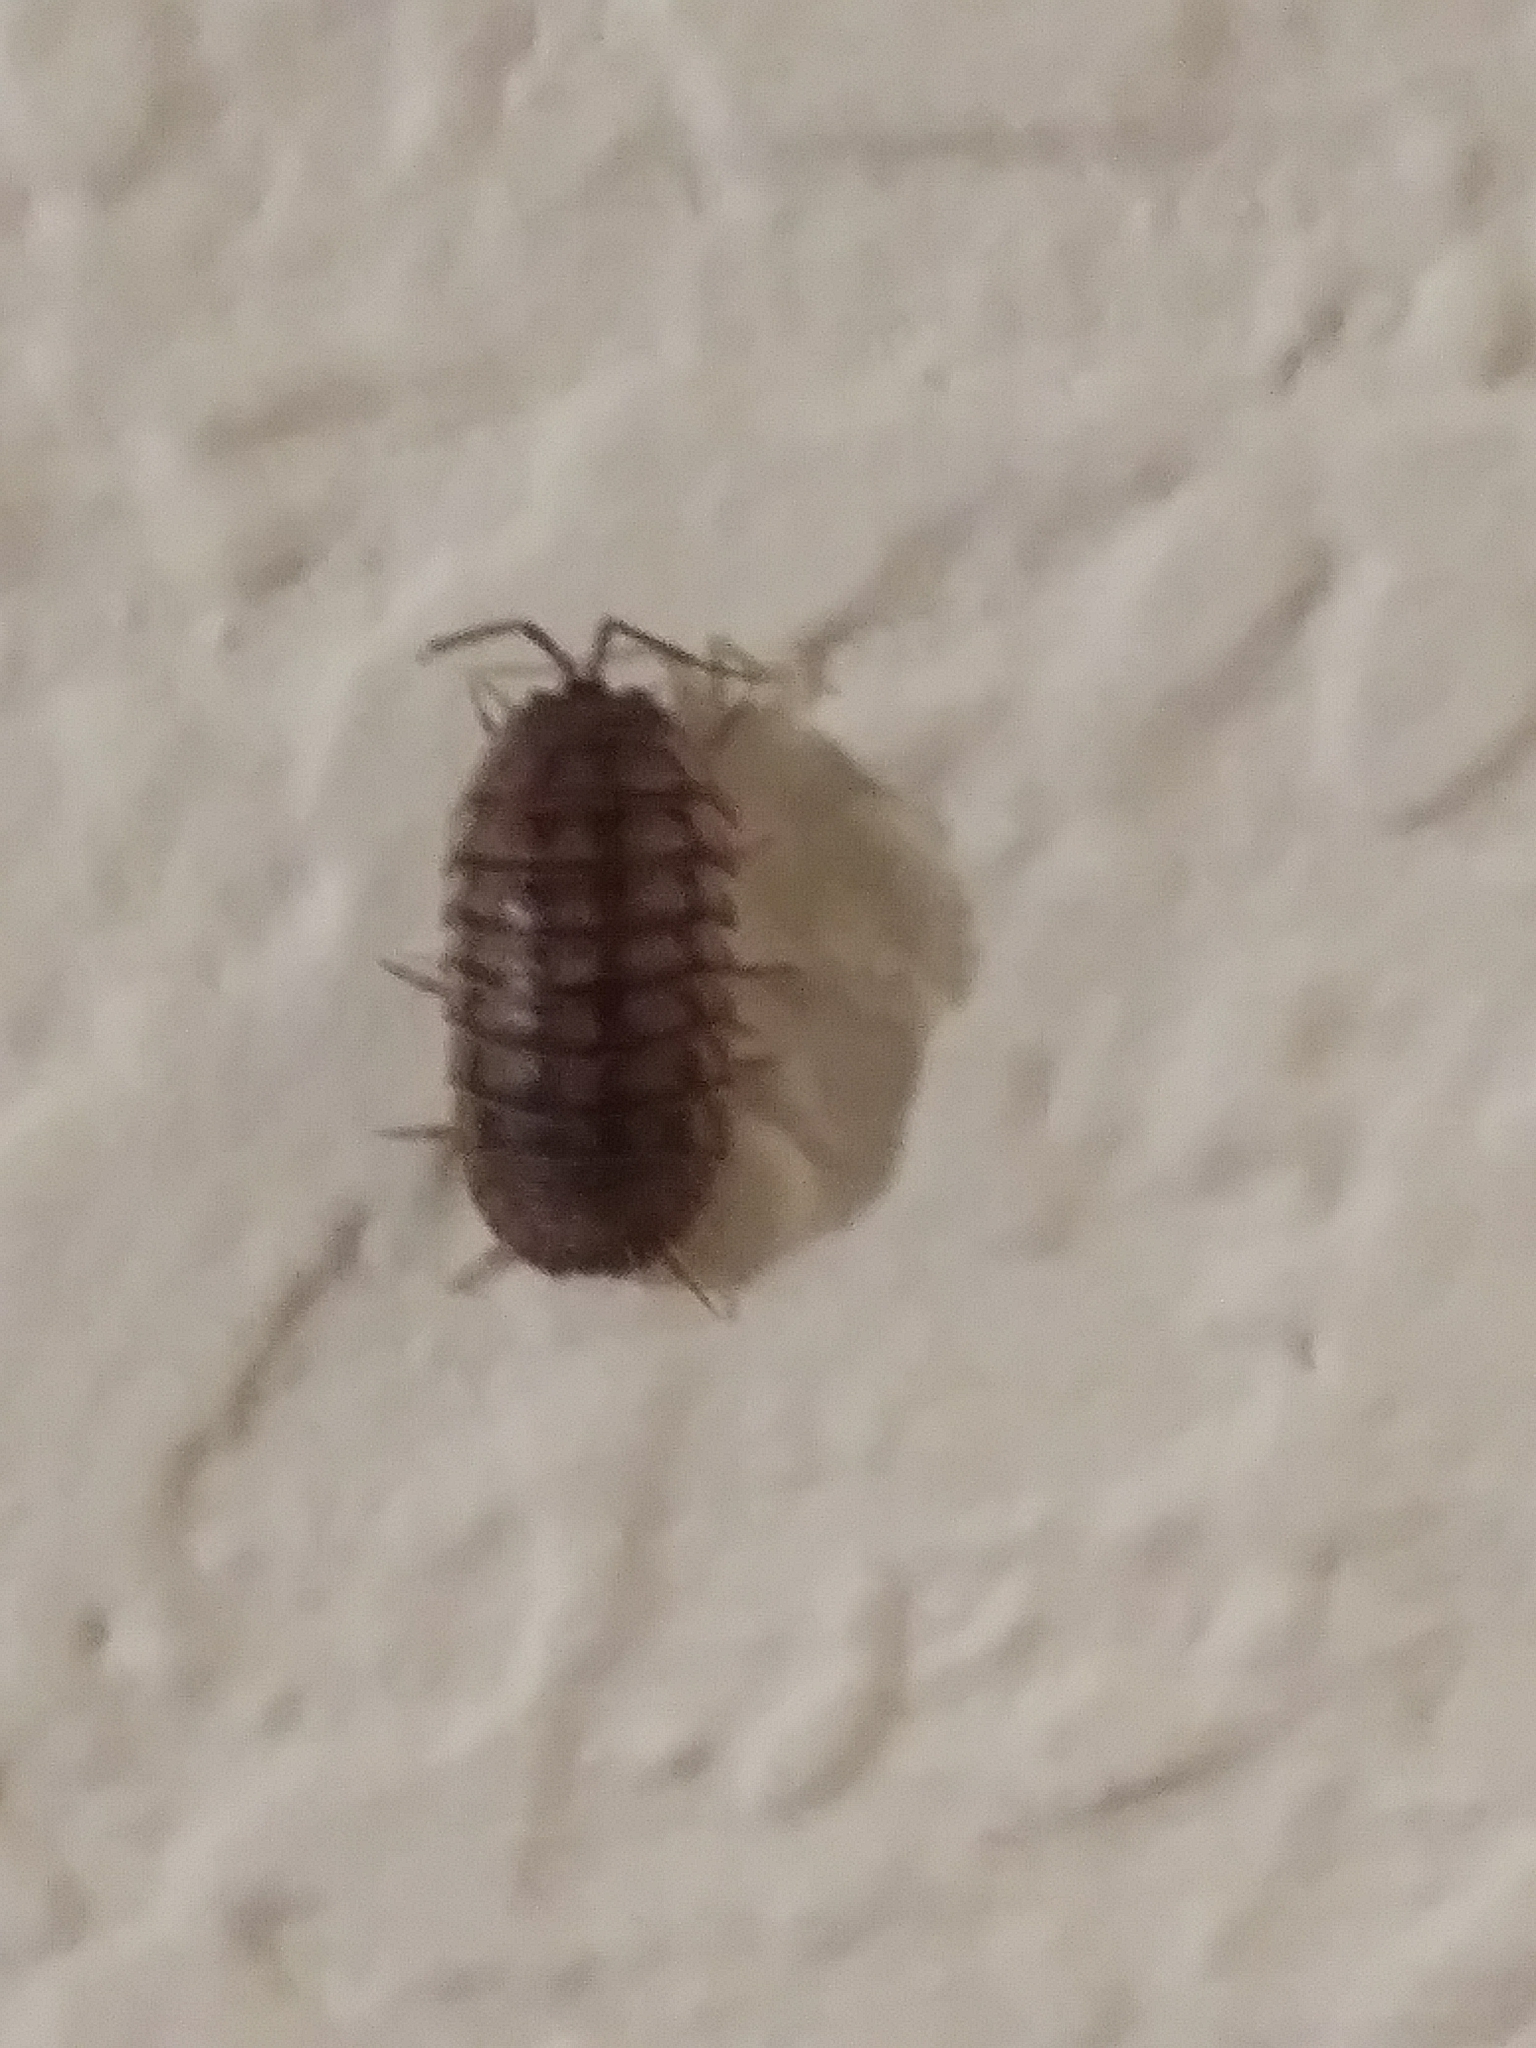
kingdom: Animalia
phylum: Arthropoda
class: Malacostraca
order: Isopoda
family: Armadillidiidae
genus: Armadillidium
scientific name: Armadillidium nasatum
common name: Isopod
